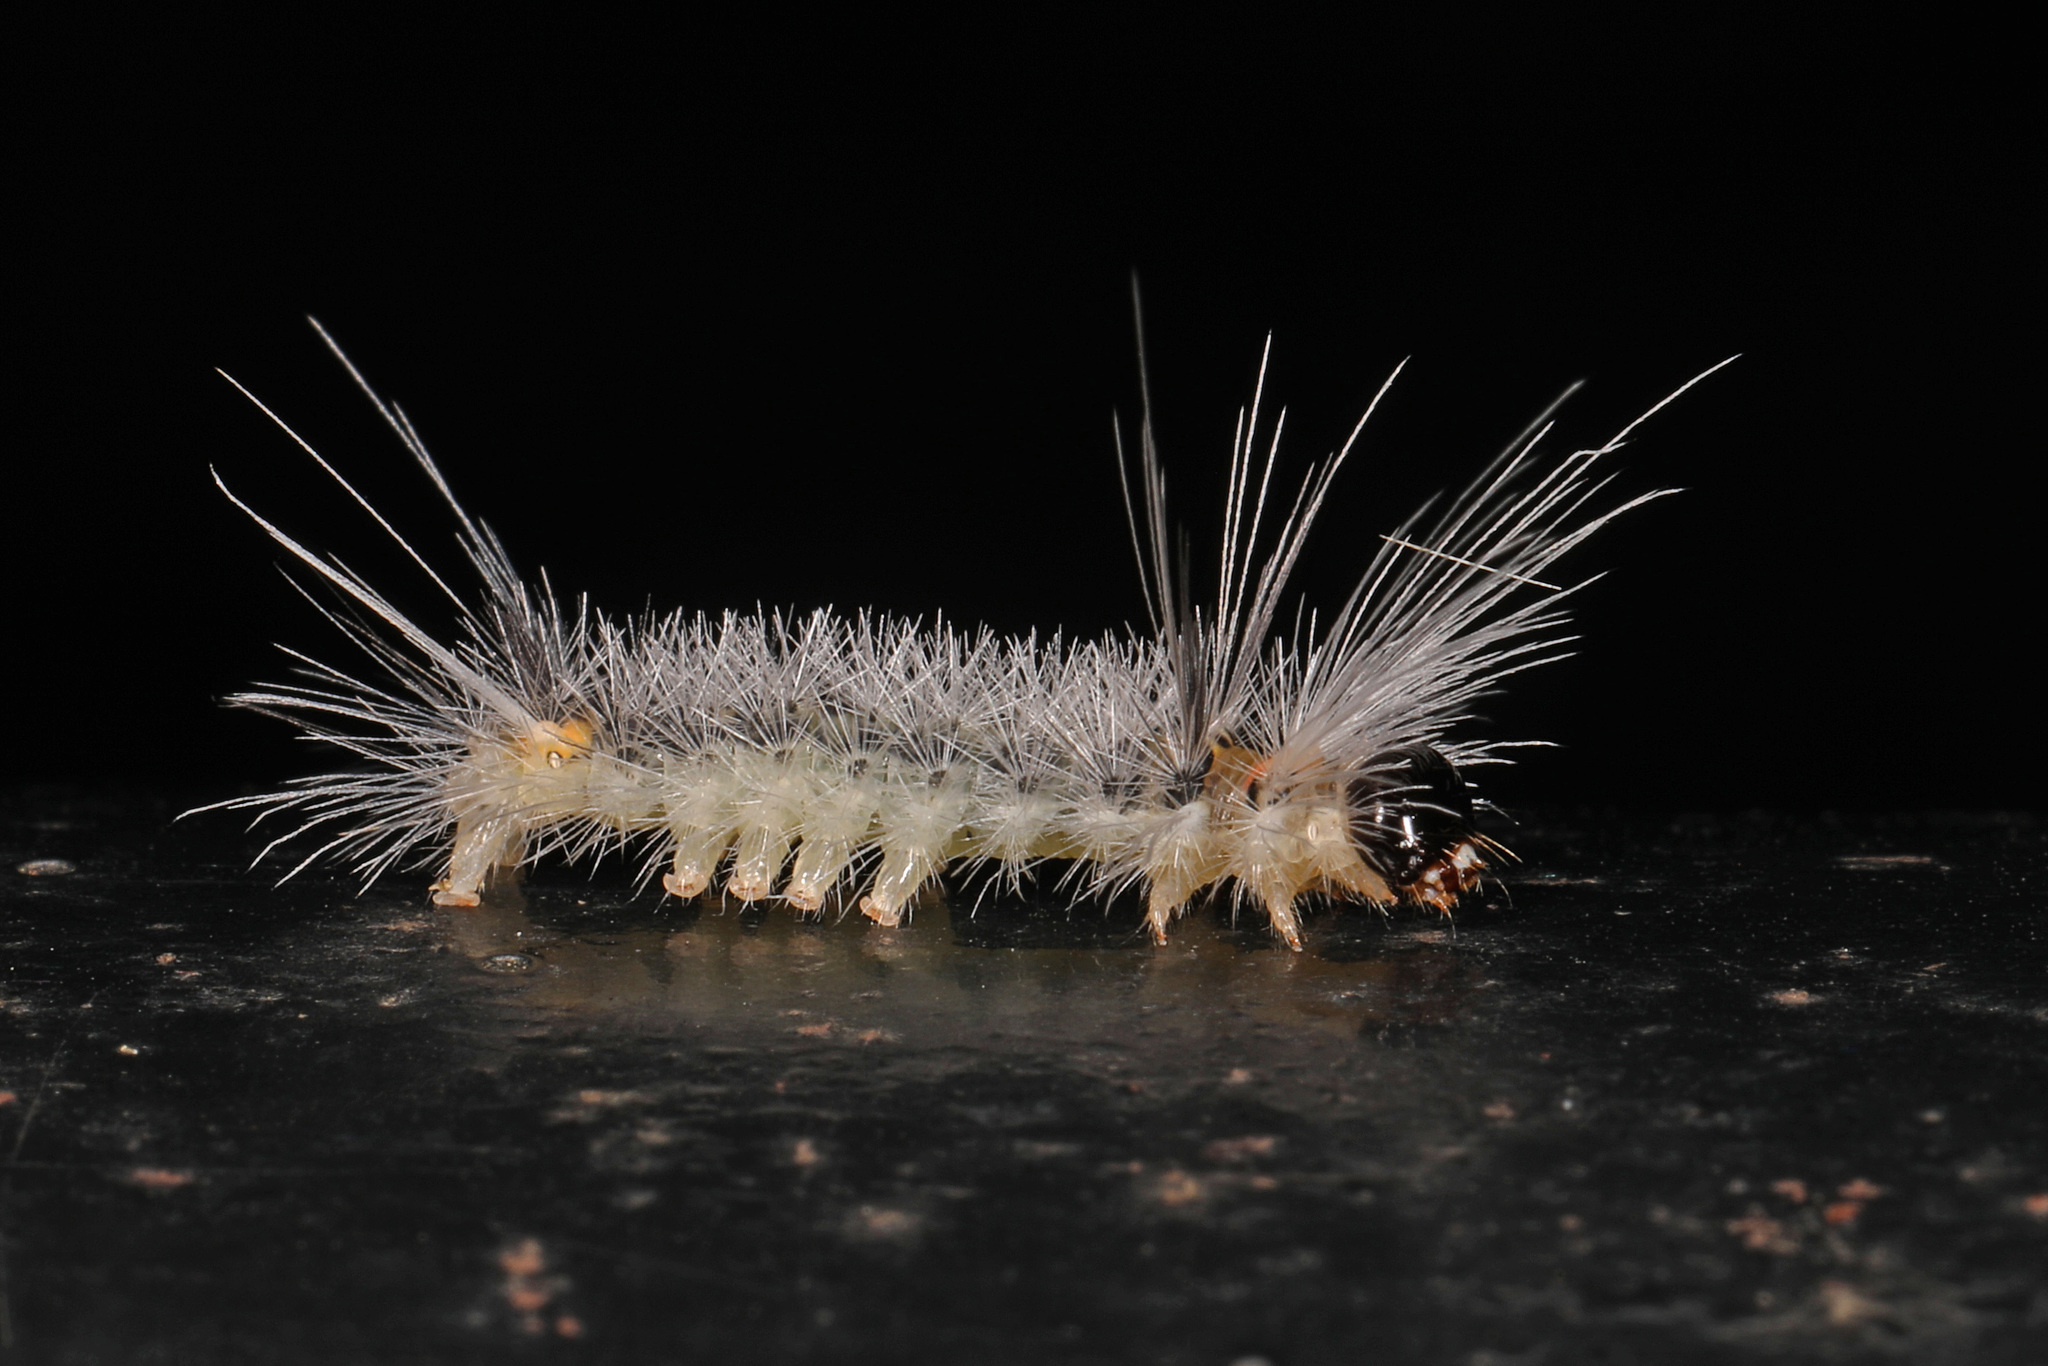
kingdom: Animalia
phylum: Arthropoda
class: Insecta
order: Lepidoptera
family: Erebidae
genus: Halysidota
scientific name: Halysidota tessellaris
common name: Banded tussock moth
